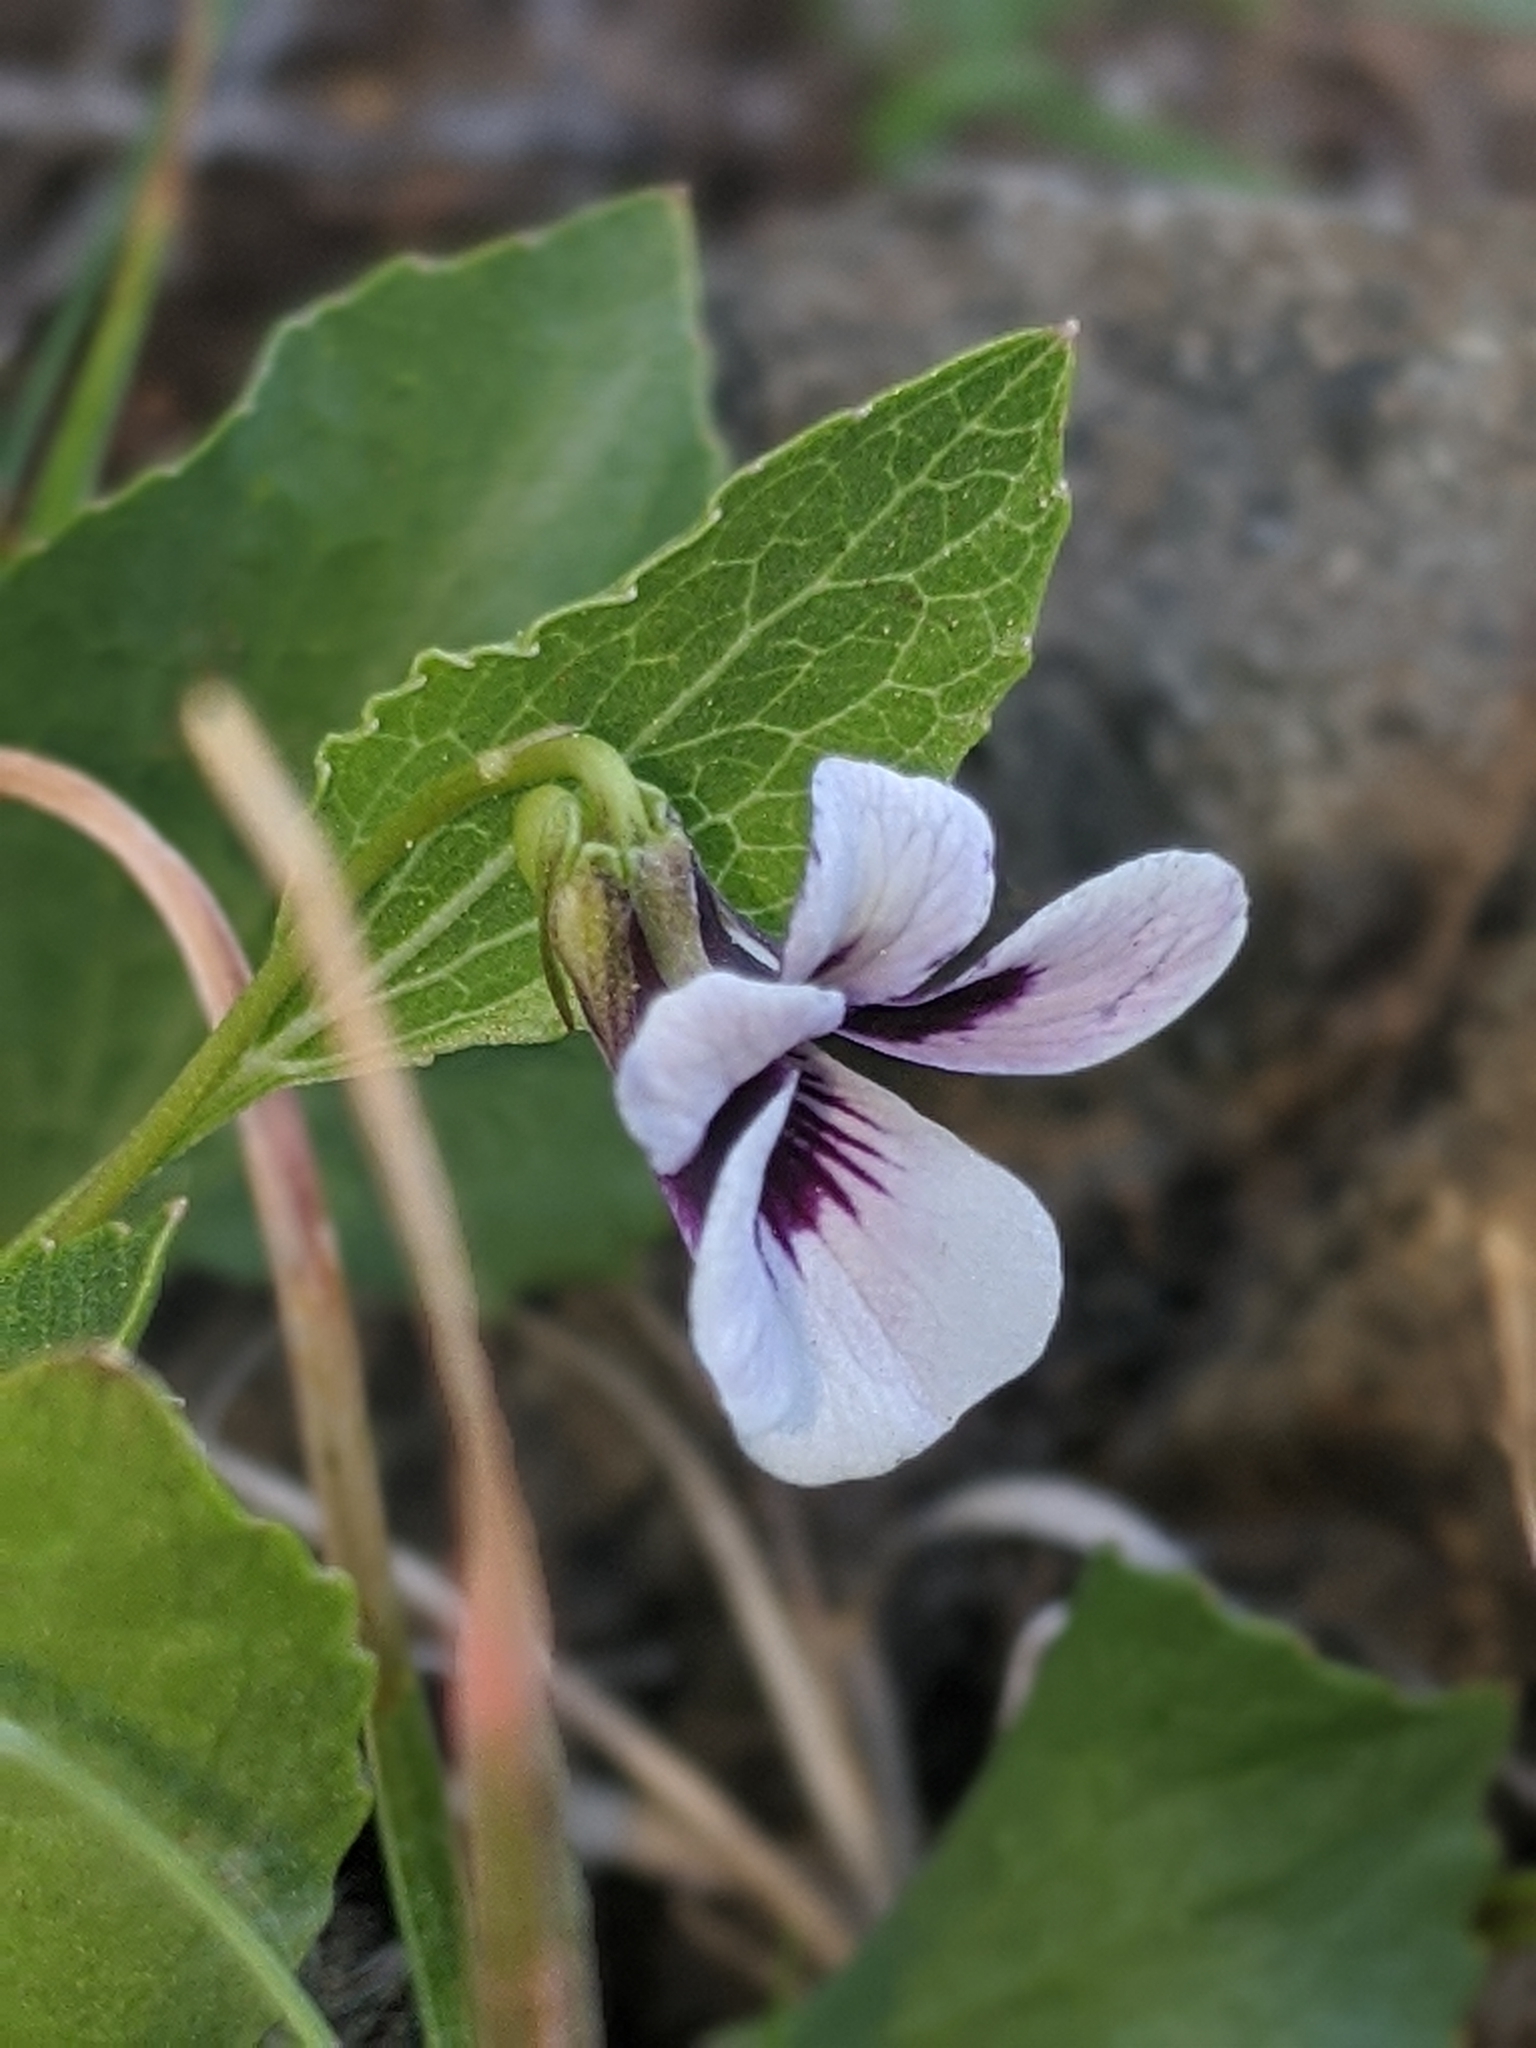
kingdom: Plantae
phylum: Tracheophyta
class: Magnoliopsida
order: Malpighiales
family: Violaceae
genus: Viola
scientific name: Viola cuneata
